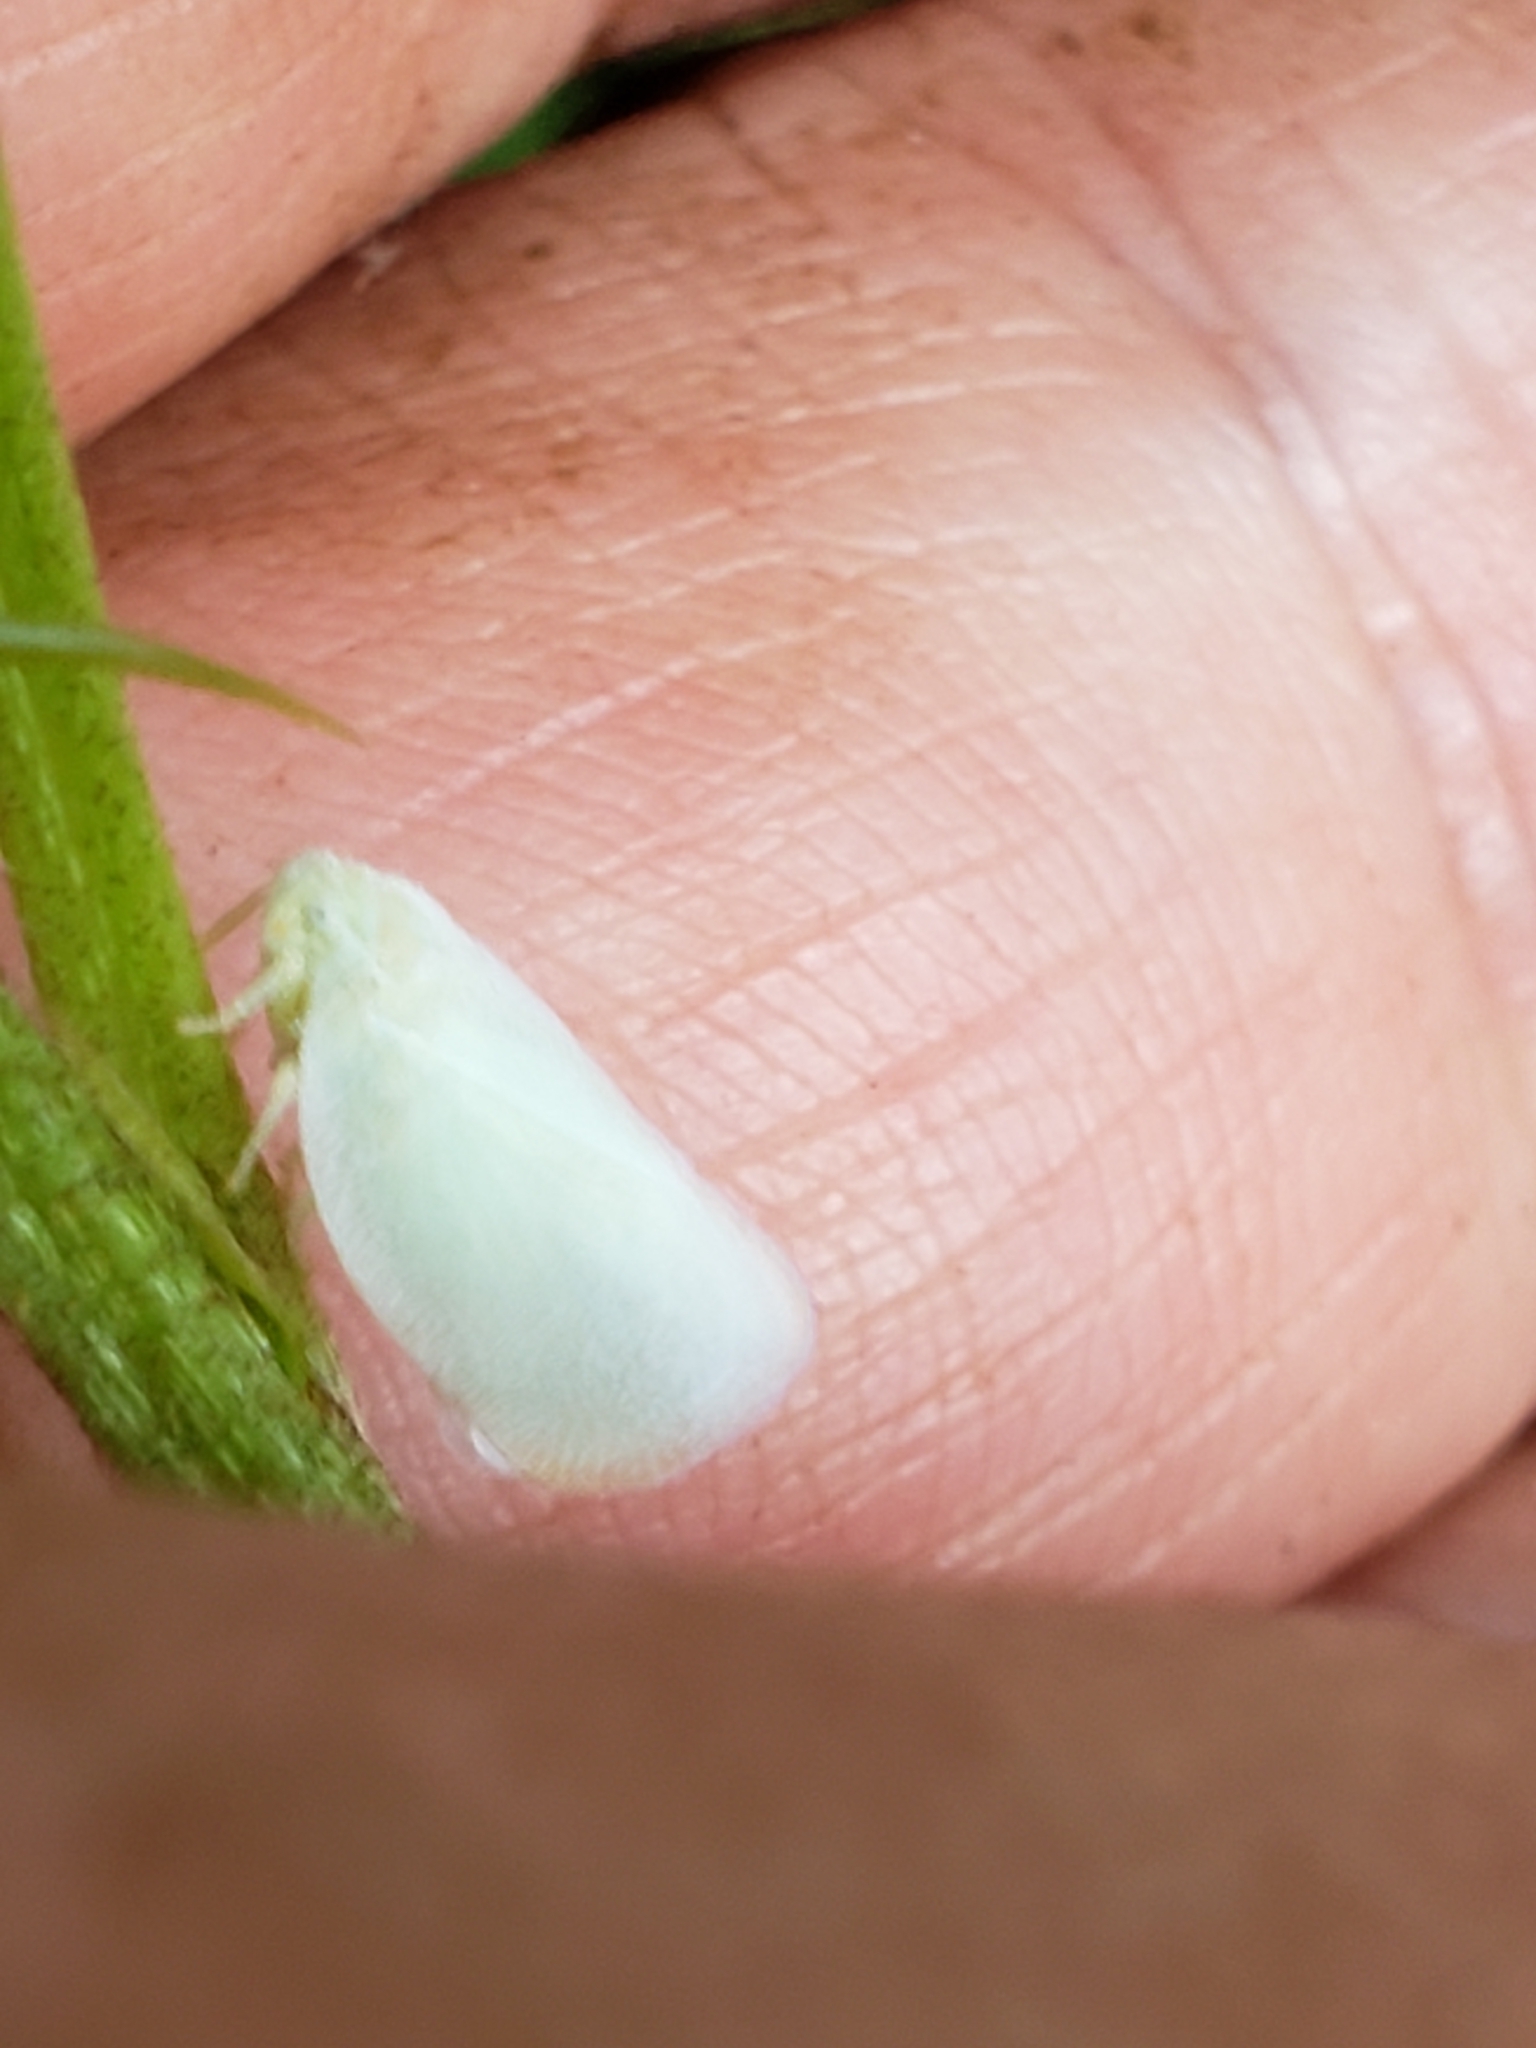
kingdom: Animalia
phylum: Arthropoda
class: Insecta
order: Hemiptera
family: Flatidae
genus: Ormenoides
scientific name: Ormenoides venusta
